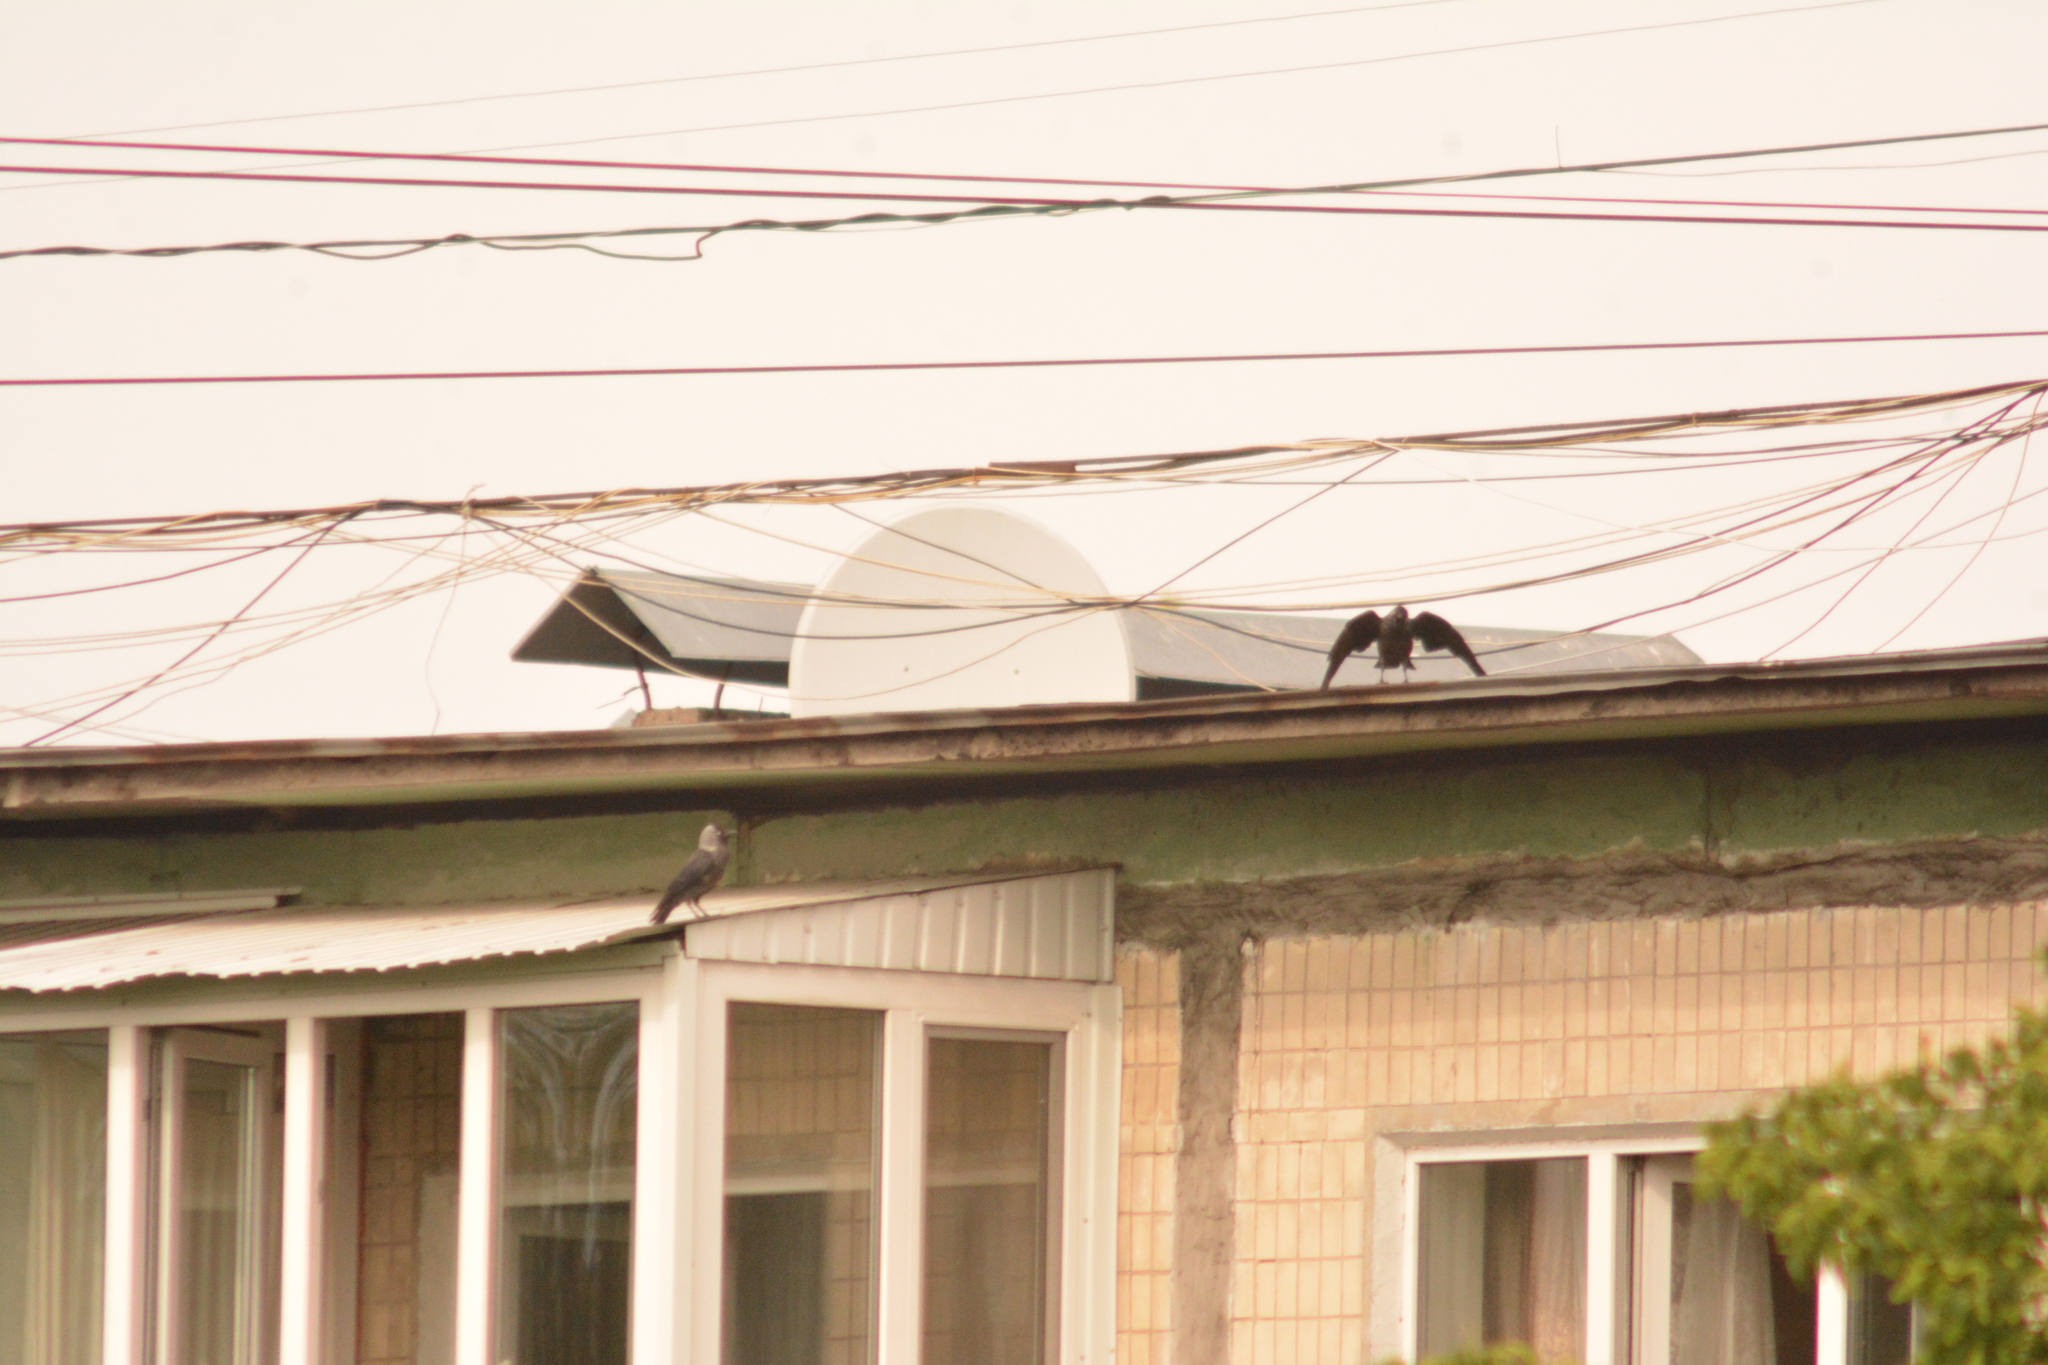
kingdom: Animalia
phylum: Chordata
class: Aves
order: Passeriformes
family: Corvidae
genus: Coloeus
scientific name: Coloeus monedula
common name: Western jackdaw
